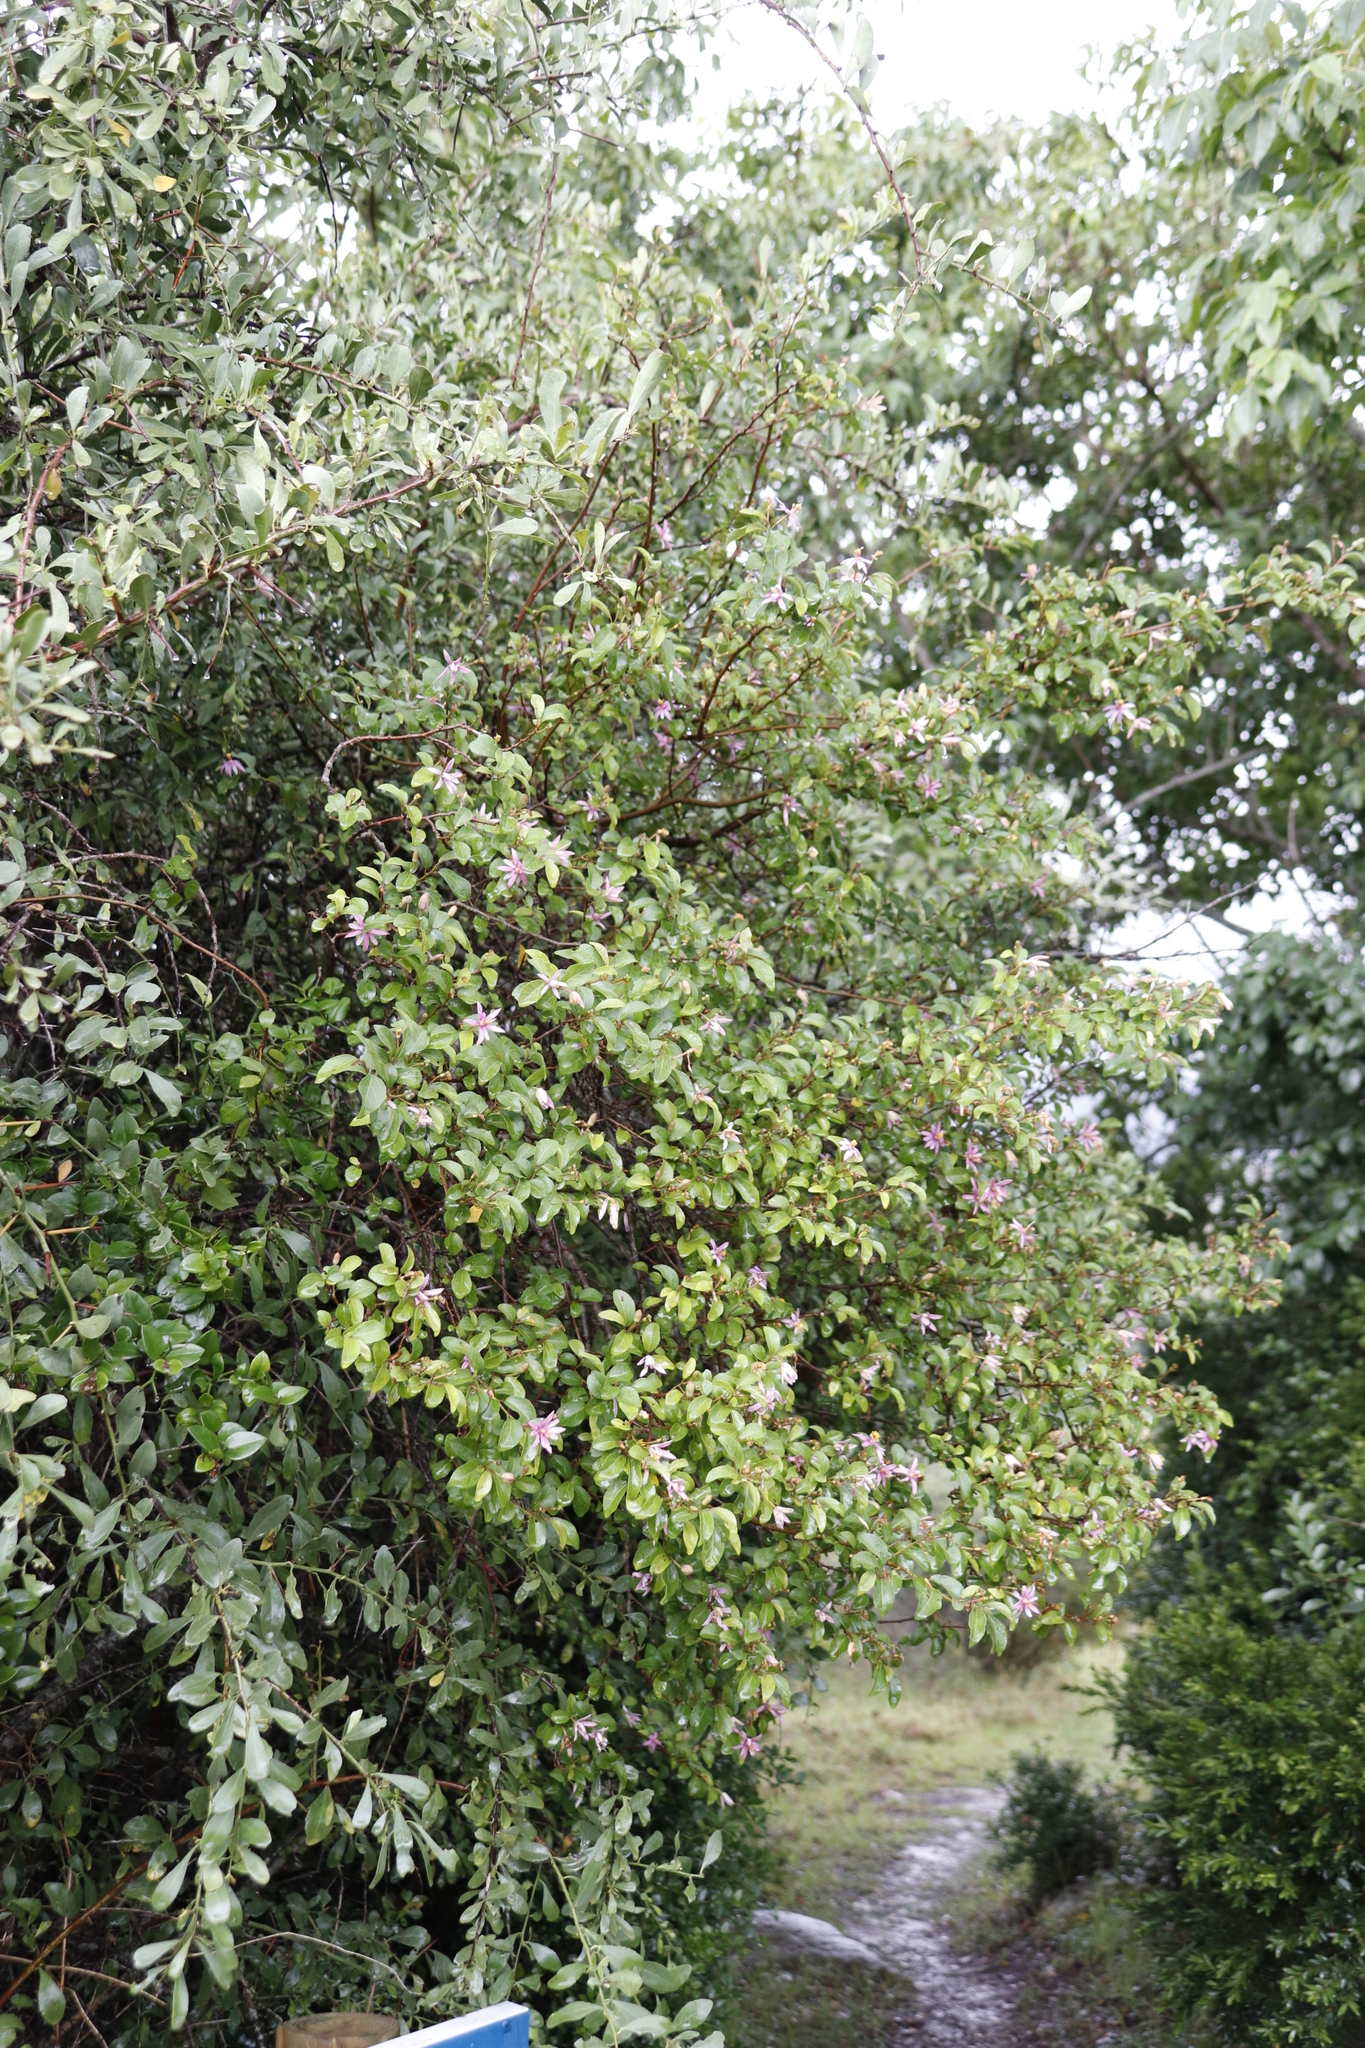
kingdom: Plantae
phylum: Tracheophyta
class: Magnoliopsida
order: Malvales
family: Malvaceae
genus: Grewia
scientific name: Grewia occidentalis
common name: Crossberry
